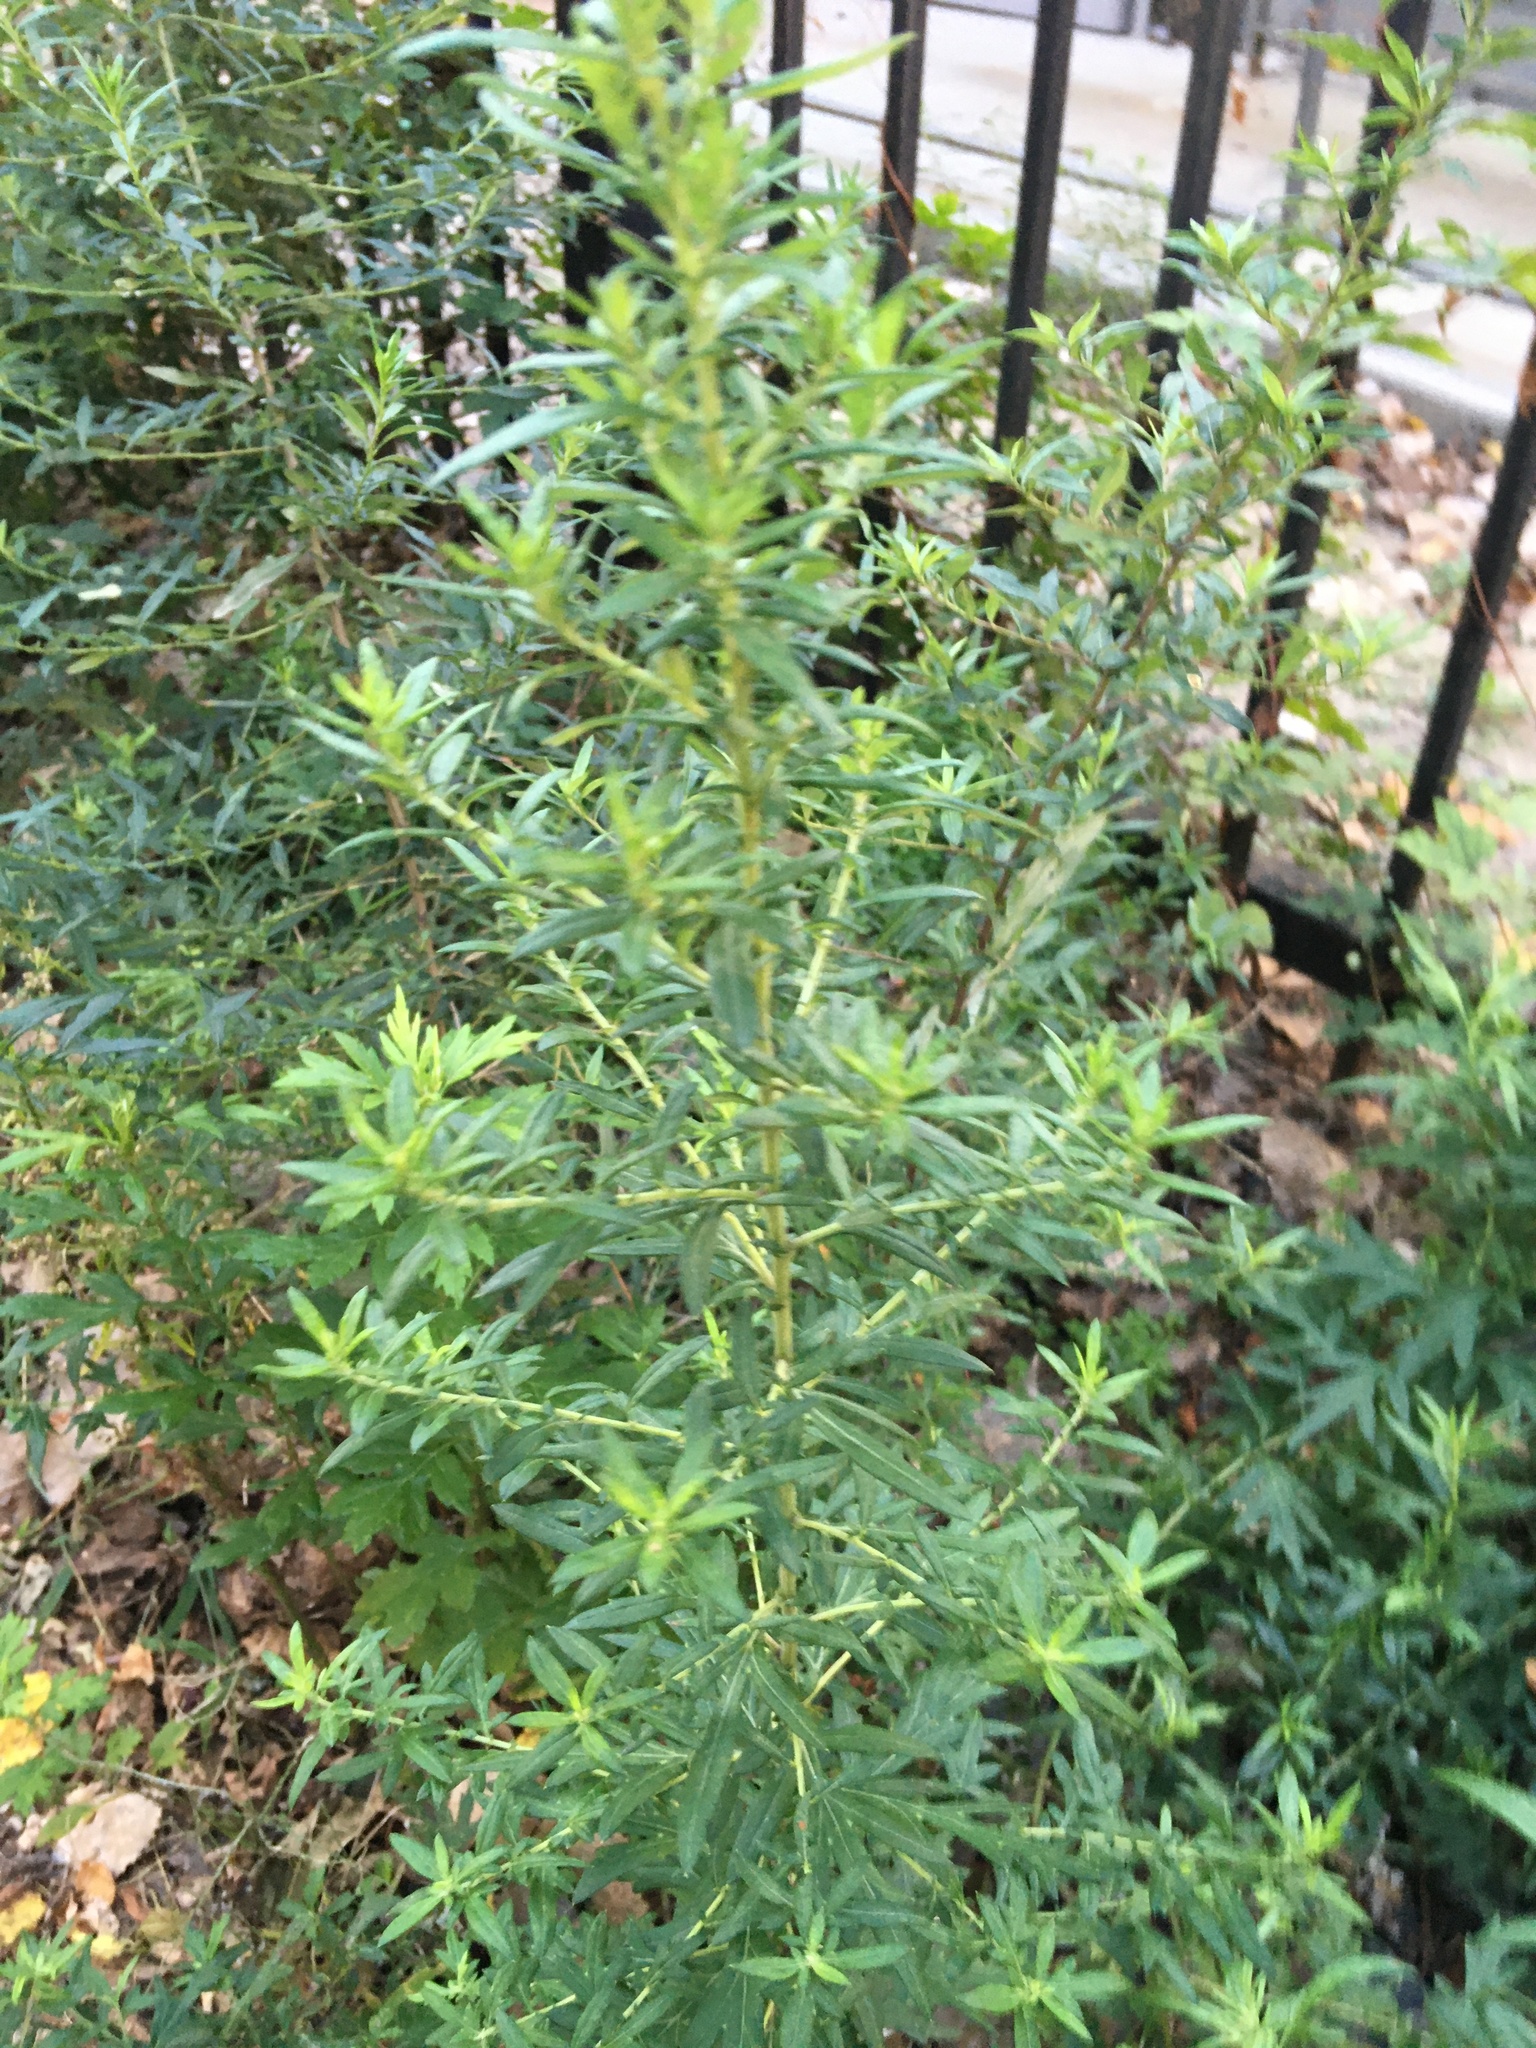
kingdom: Plantae
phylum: Tracheophyta
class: Magnoliopsida
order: Asterales
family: Asteraceae
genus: Artemisia
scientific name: Artemisia vulgaris
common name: Mugwort
